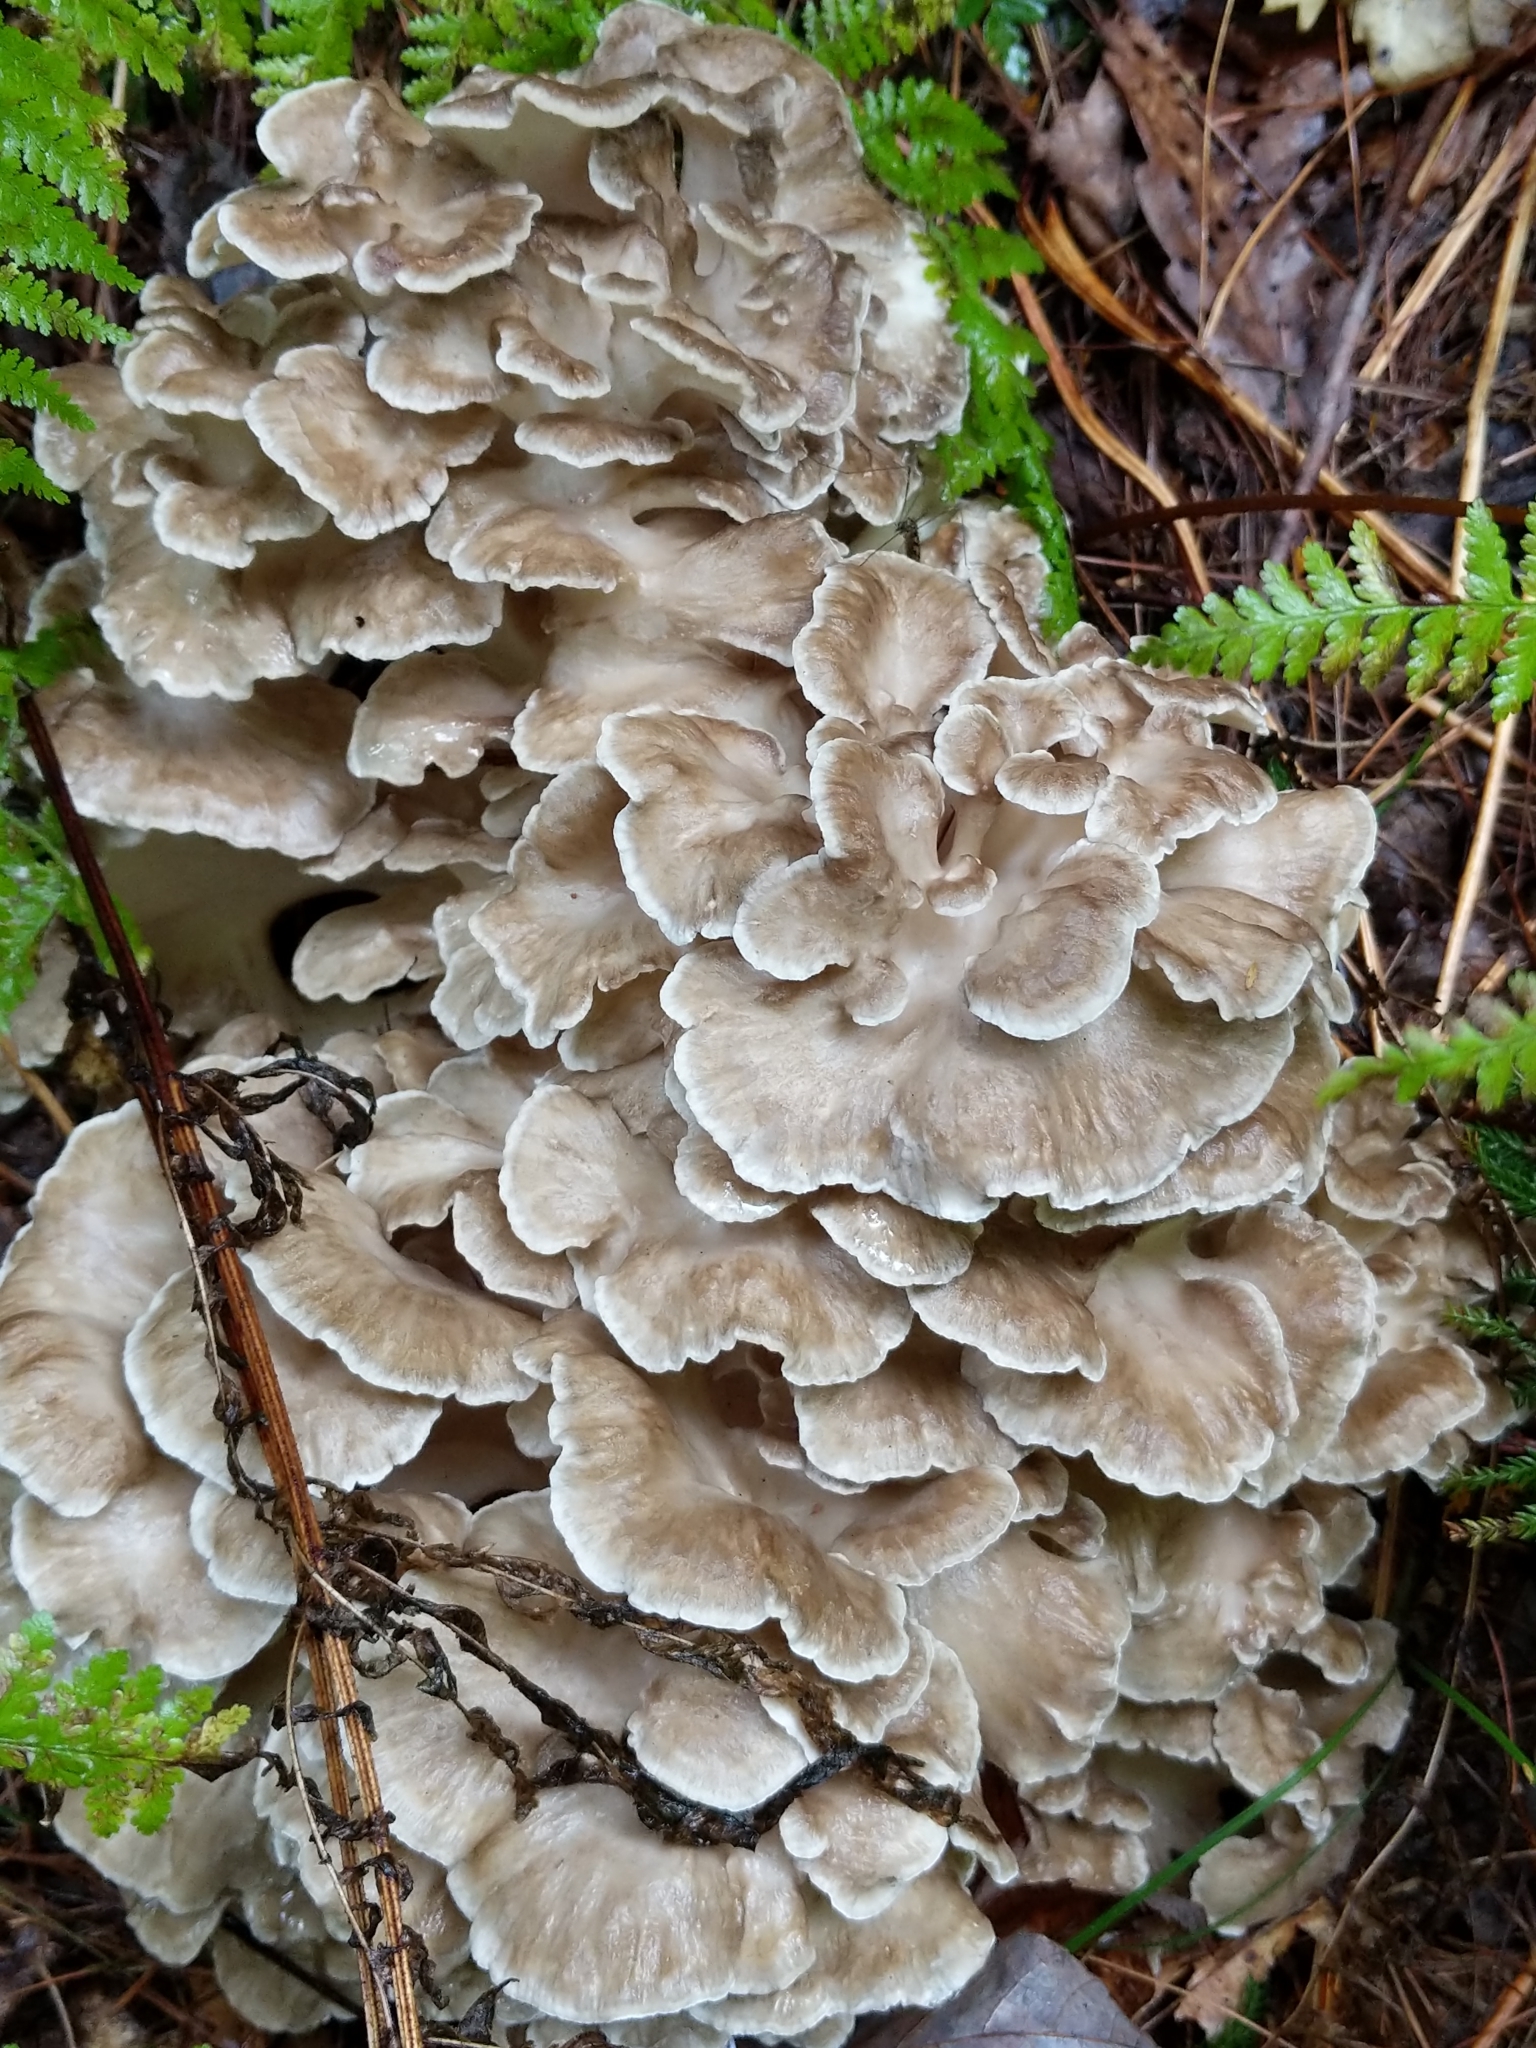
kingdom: Fungi
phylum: Basidiomycota
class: Agaricomycetes
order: Polyporales
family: Grifolaceae
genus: Grifola
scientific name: Grifola frondosa
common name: Hen of the woods
